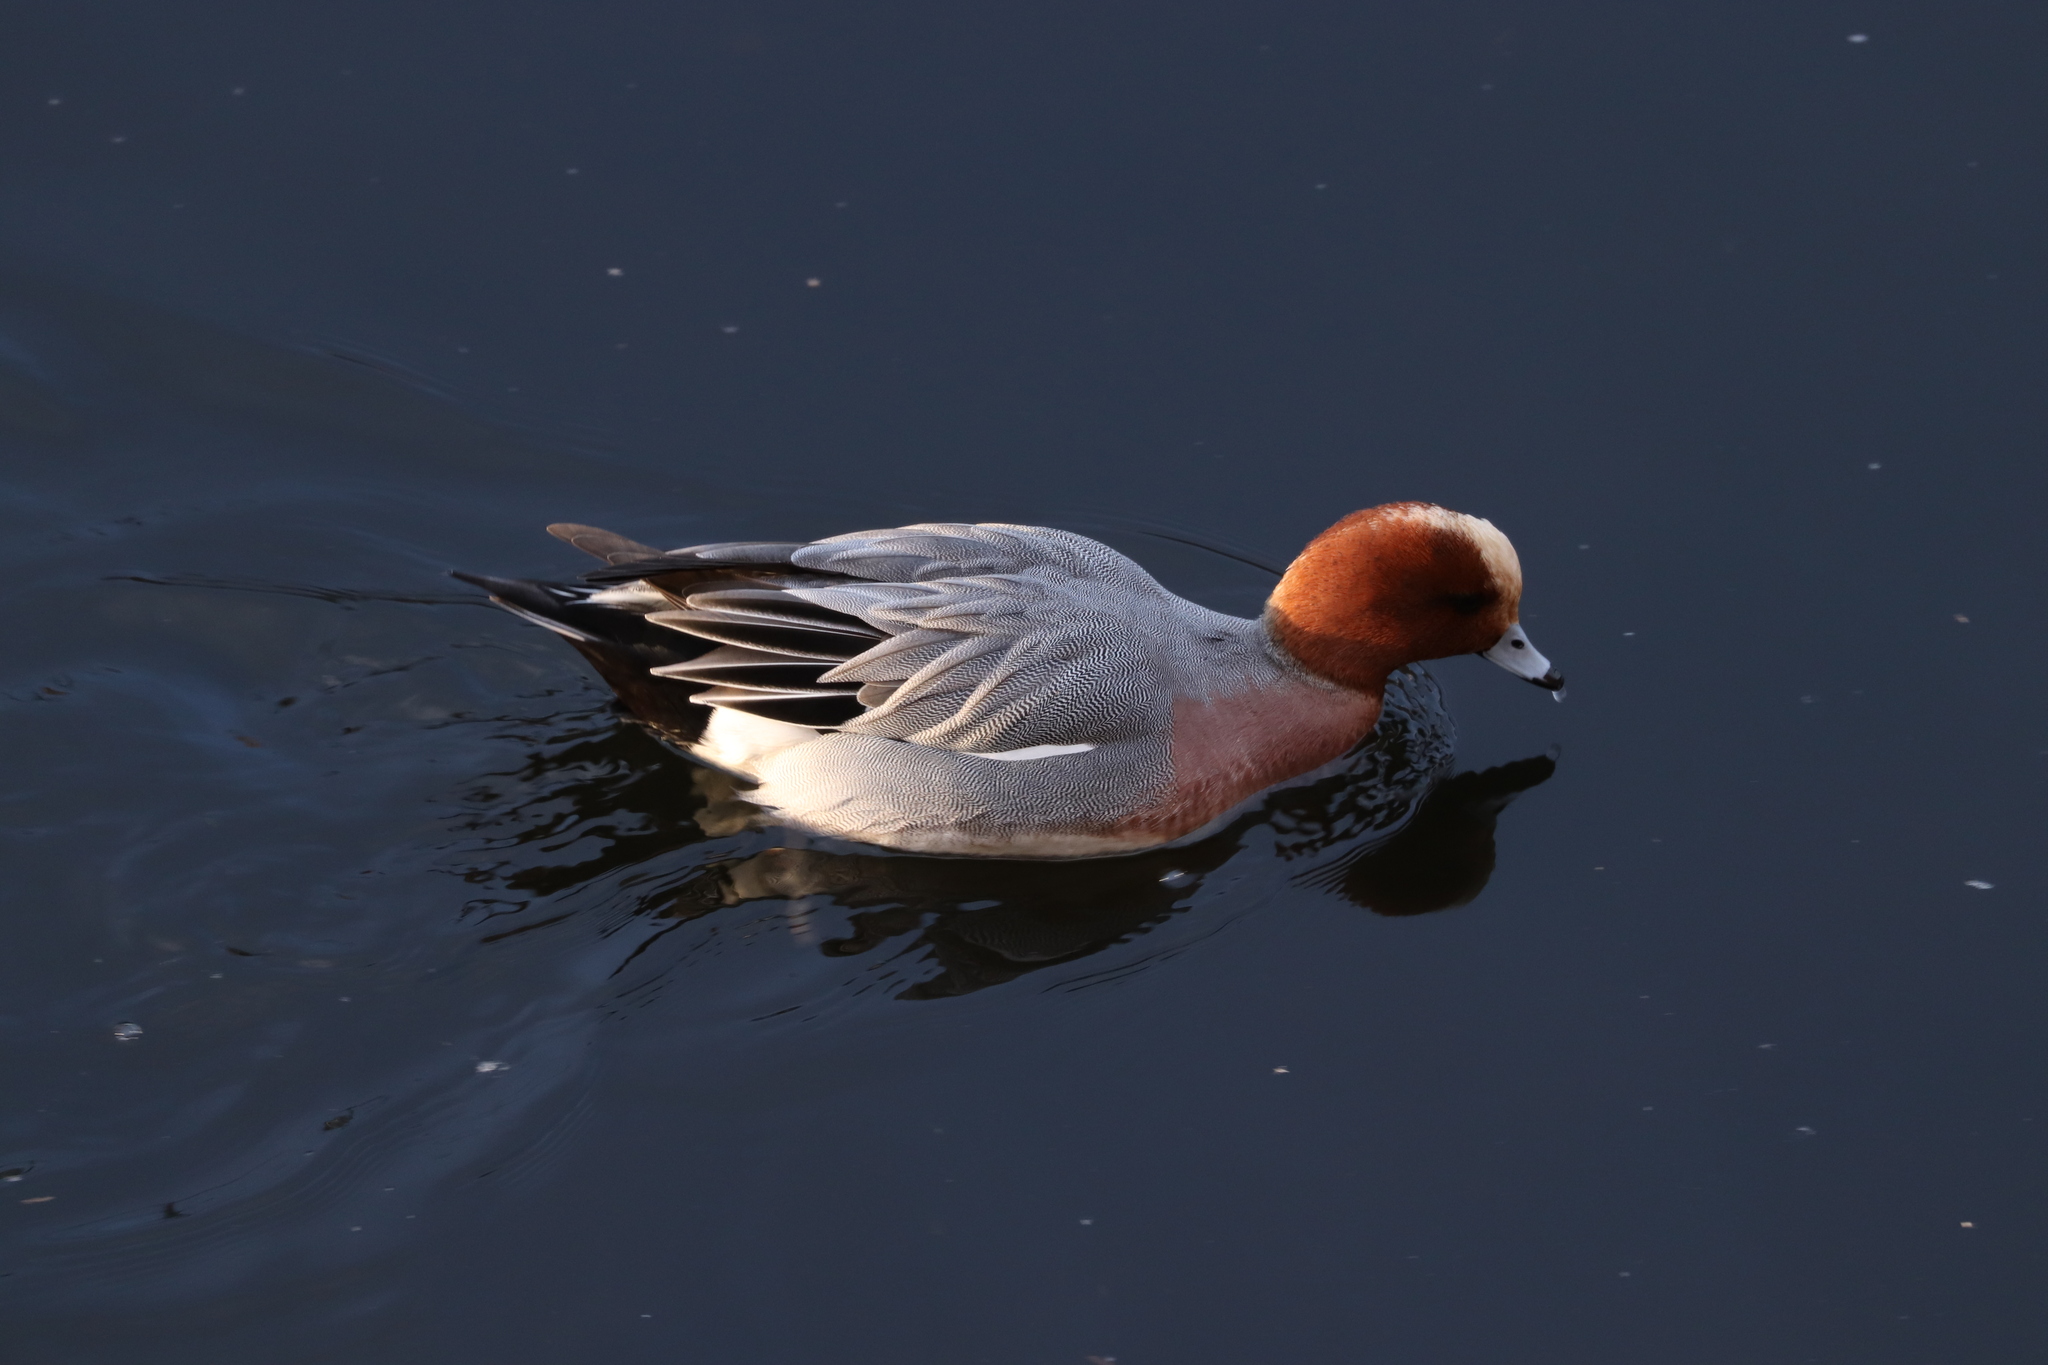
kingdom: Animalia
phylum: Chordata
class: Aves
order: Anseriformes
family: Anatidae
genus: Mareca
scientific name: Mareca penelope
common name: Eurasian wigeon
